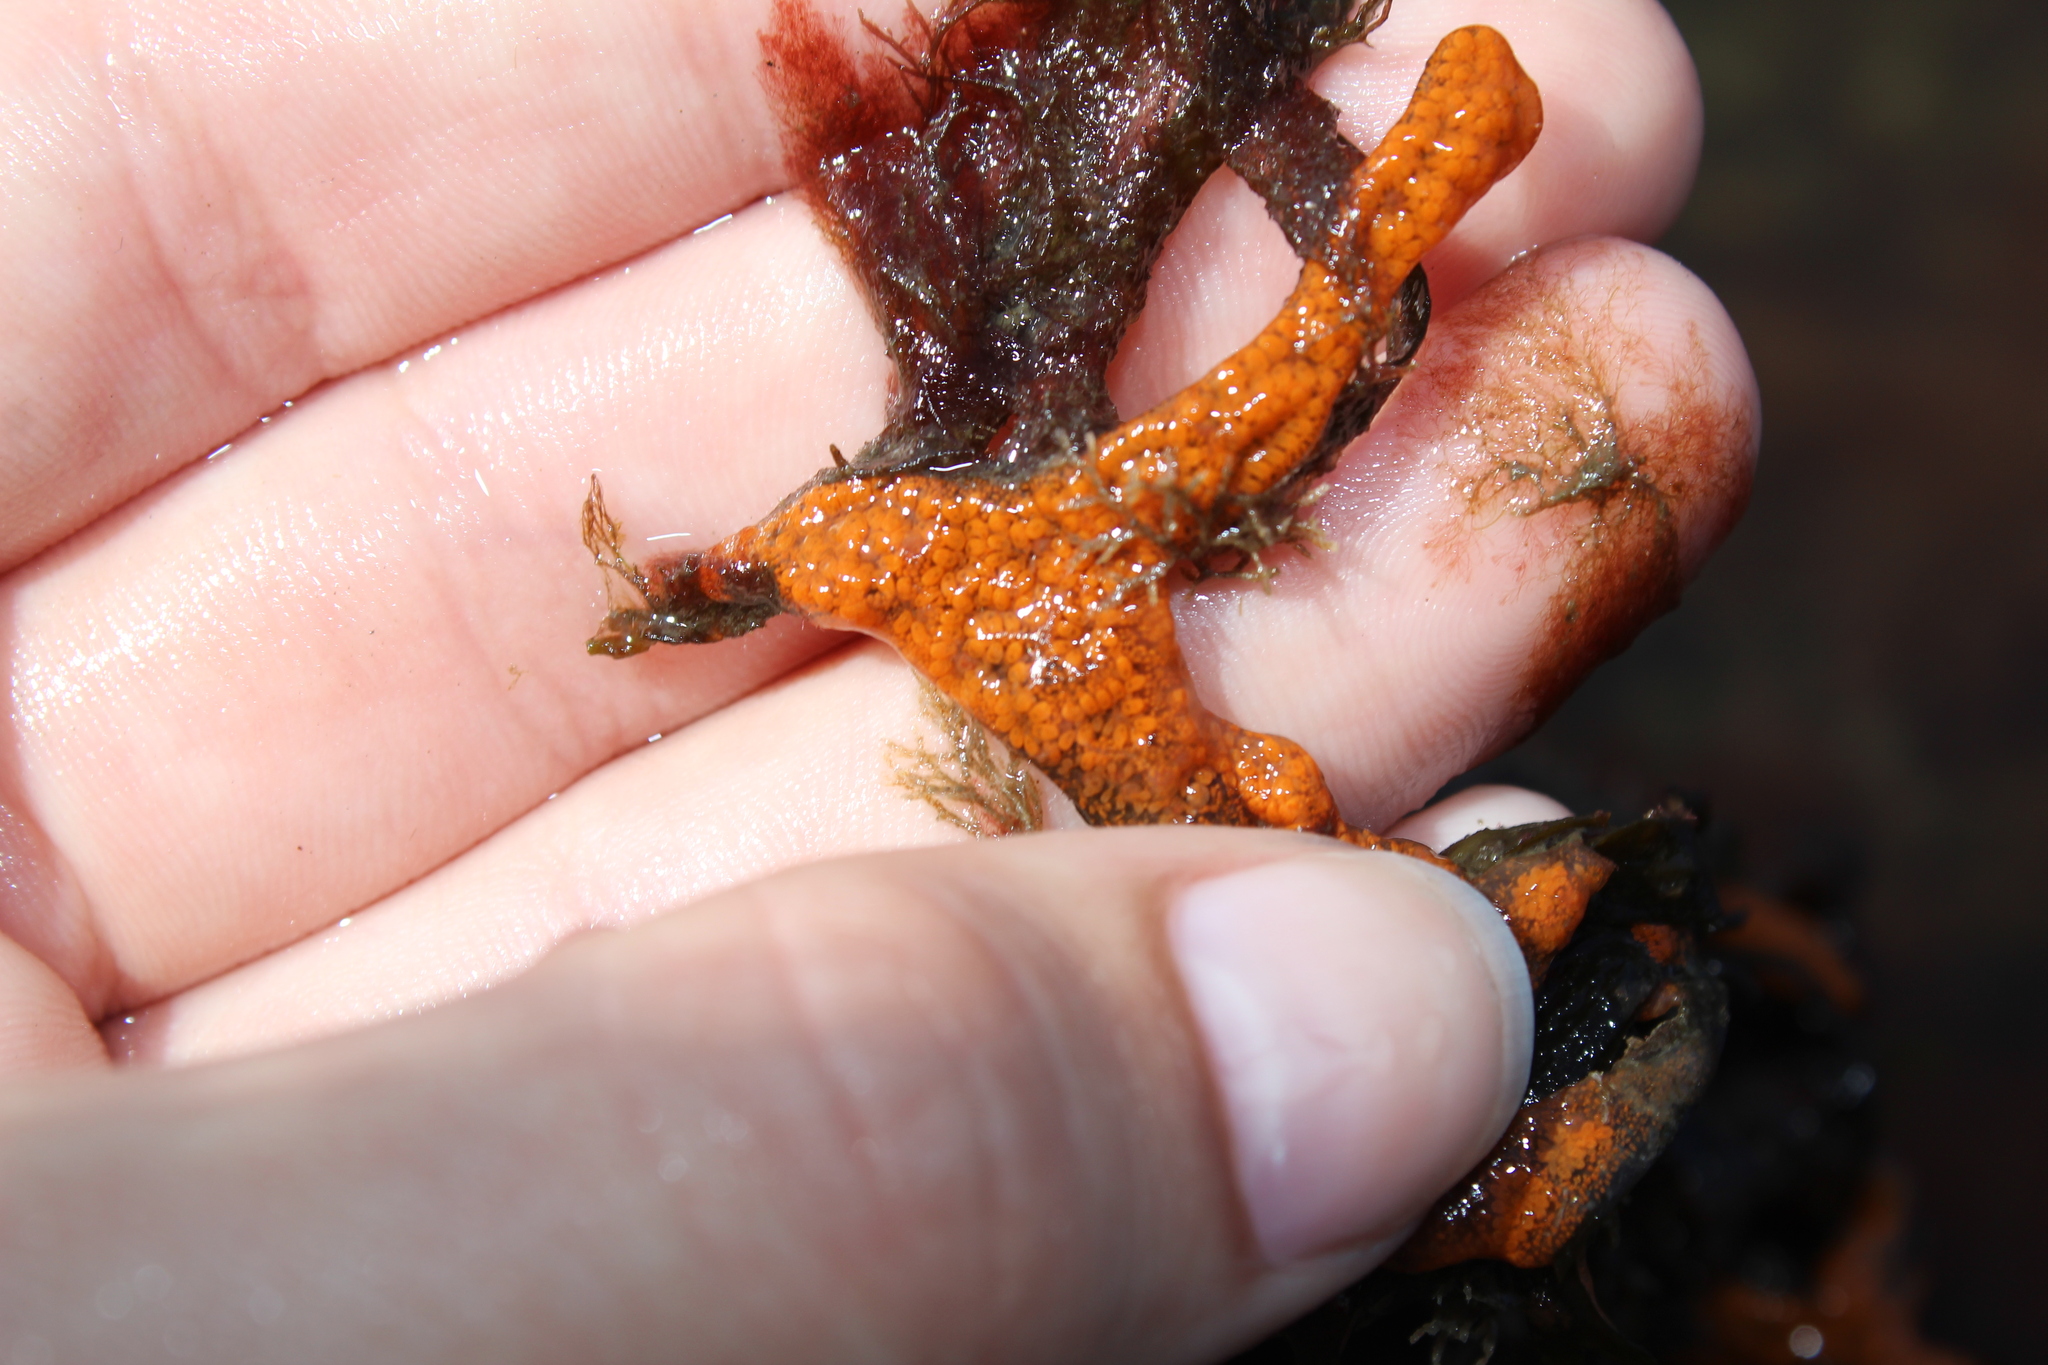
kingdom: Animalia
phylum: Chordata
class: Ascidiacea
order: Stolidobranchia
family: Styelidae
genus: Botrylloides
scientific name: Botrylloides violaceus
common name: Colonial sea squirt
